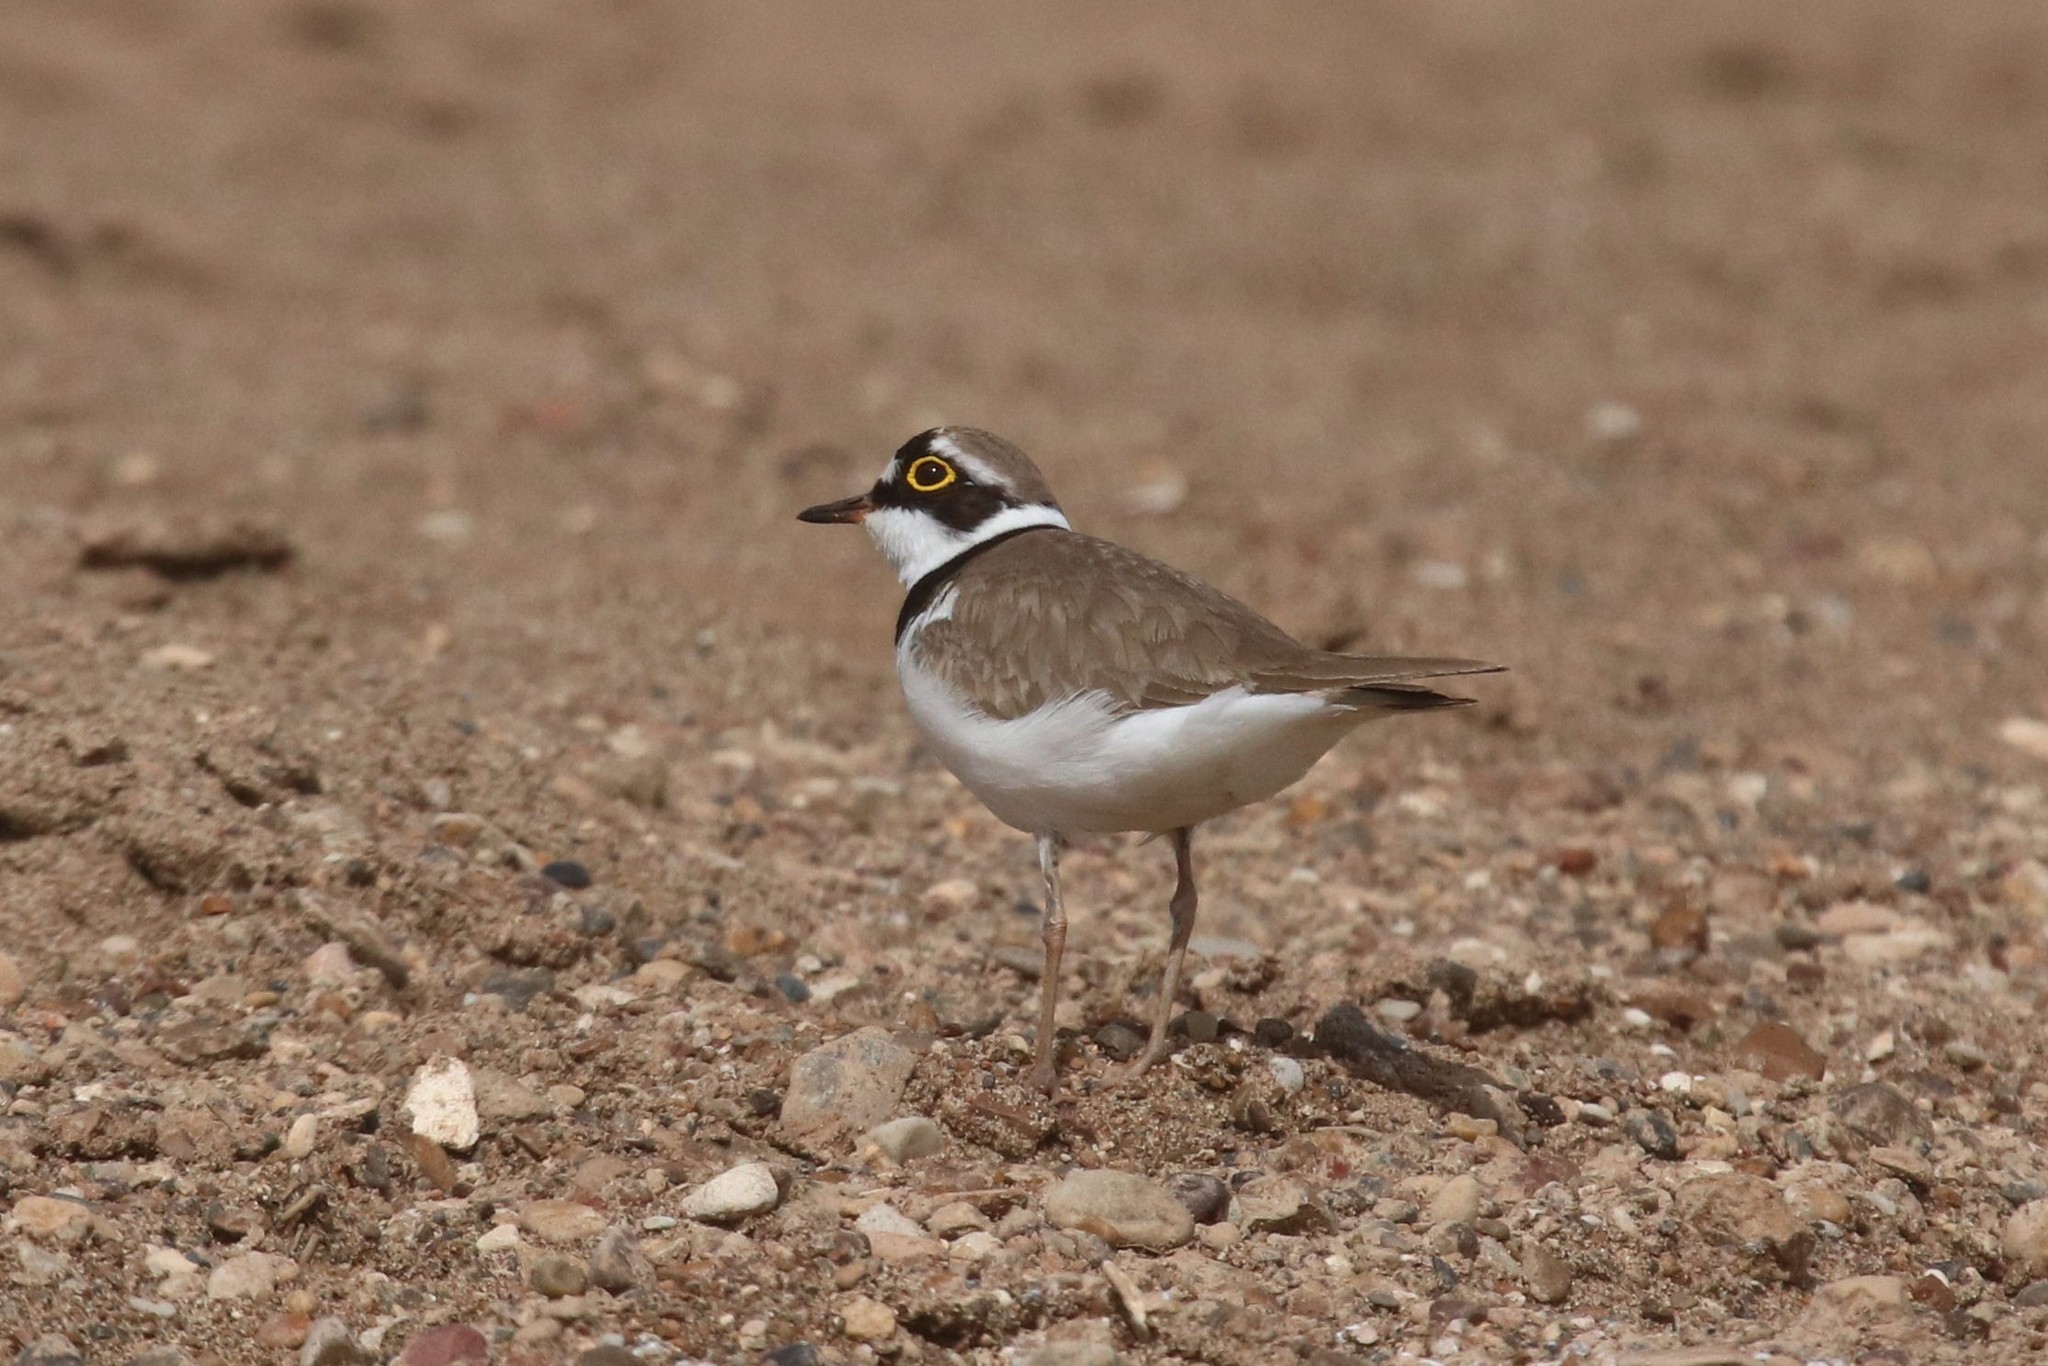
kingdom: Animalia
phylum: Chordata
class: Aves
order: Charadriiformes
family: Charadriidae
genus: Charadrius
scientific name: Charadrius dubius
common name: Little ringed plover
